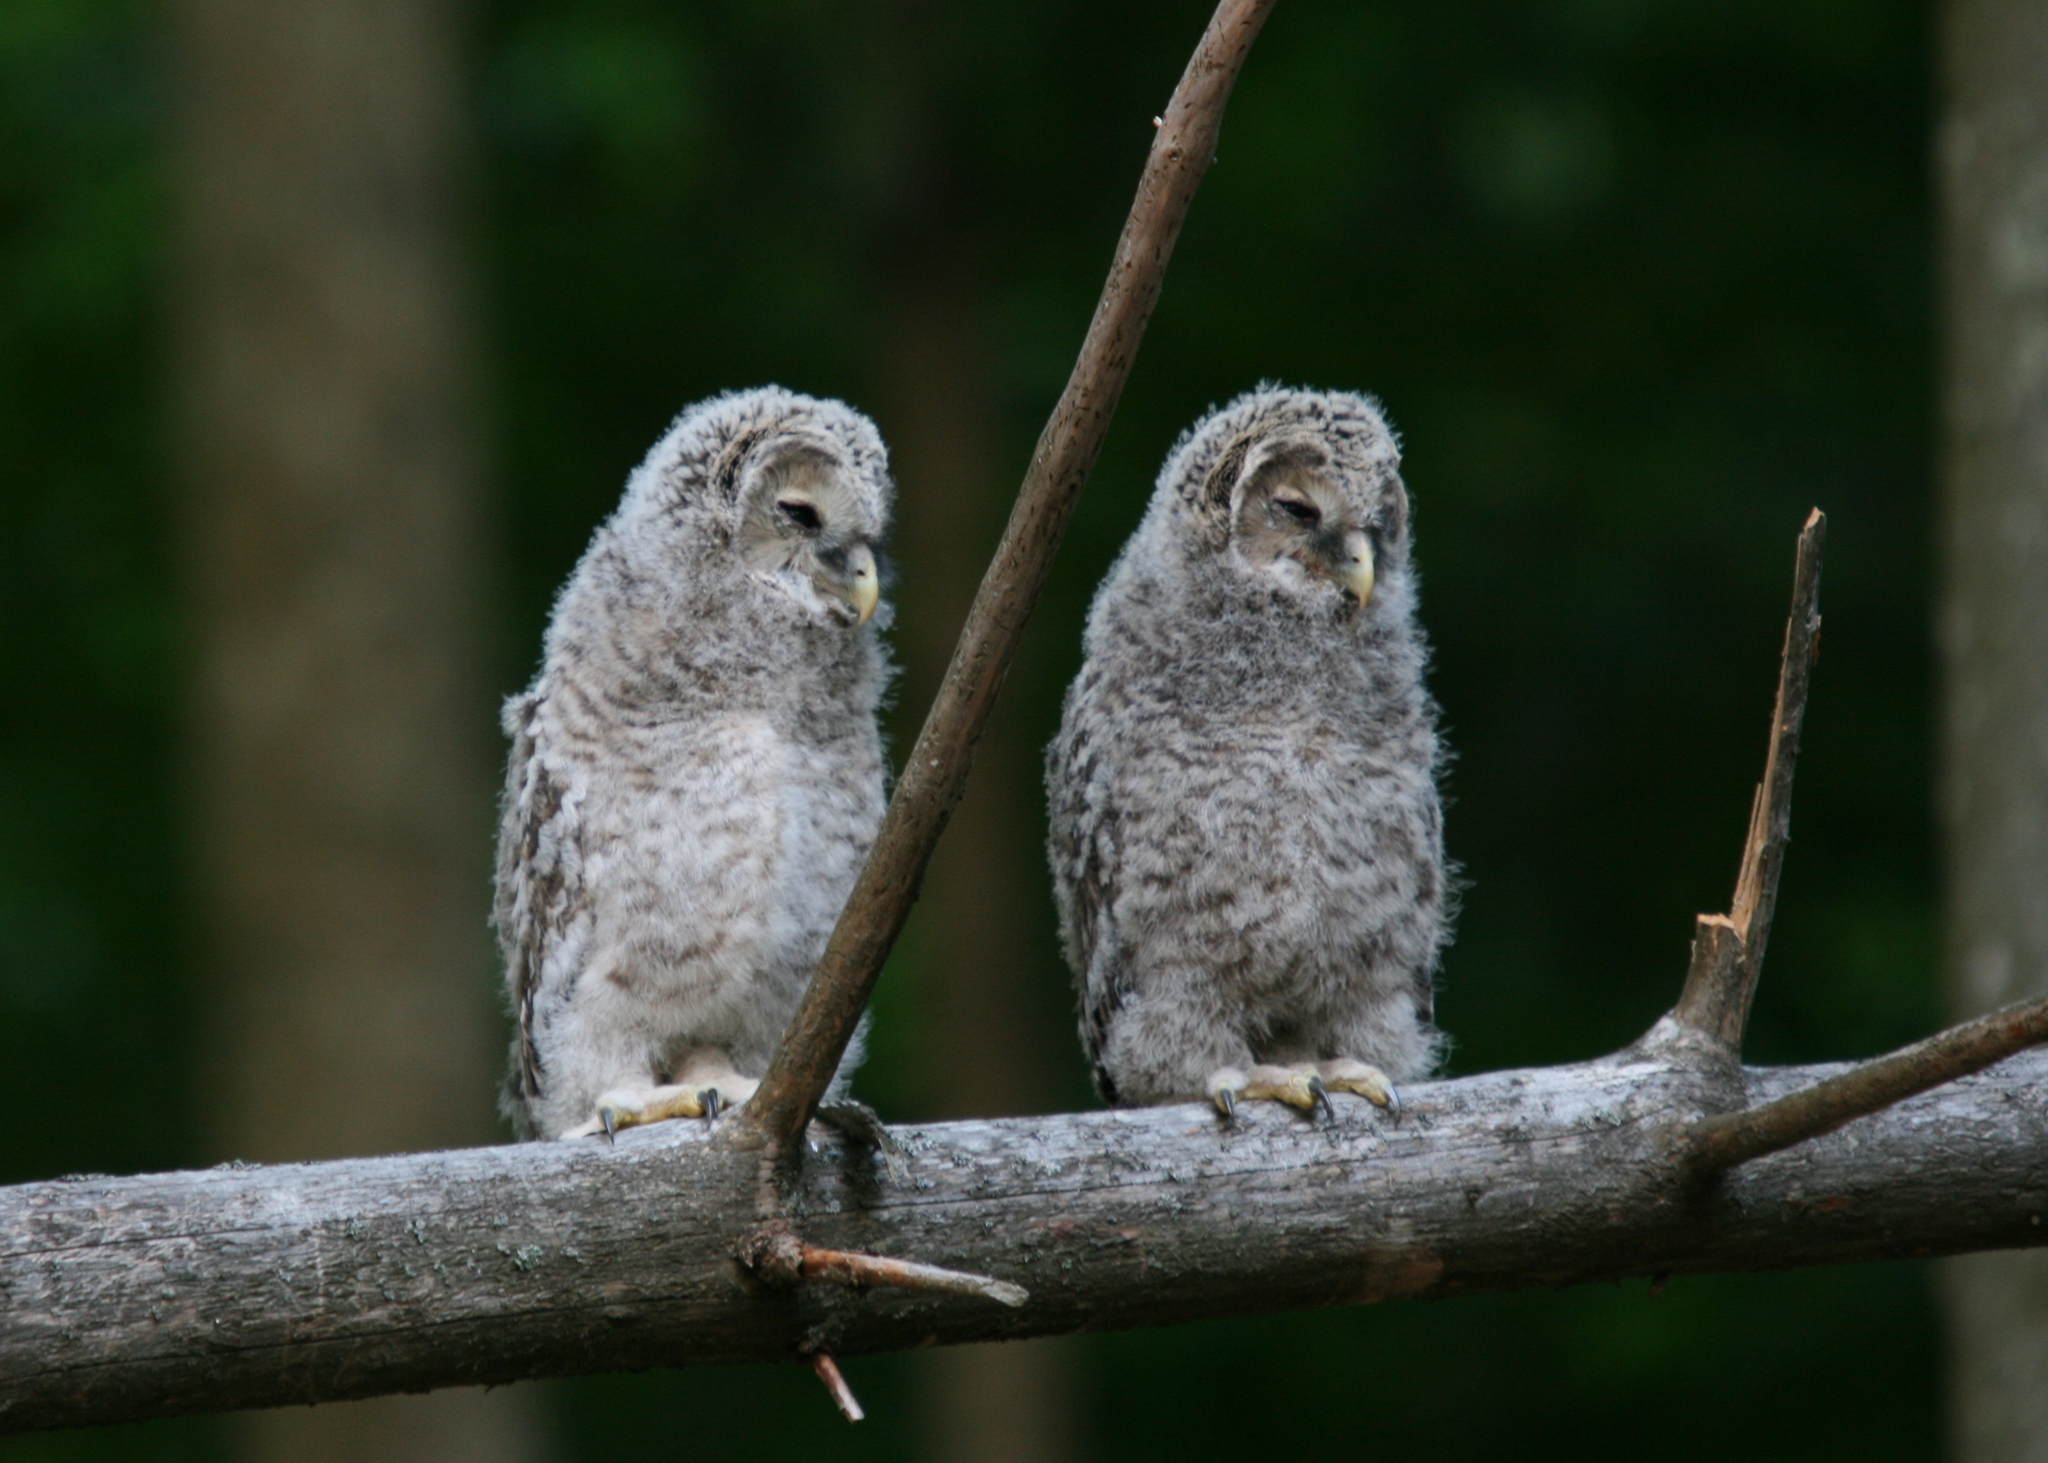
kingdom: Animalia
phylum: Chordata
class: Aves
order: Strigiformes
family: Strigidae
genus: Strix
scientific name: Strix uralensis
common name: Ural owl
